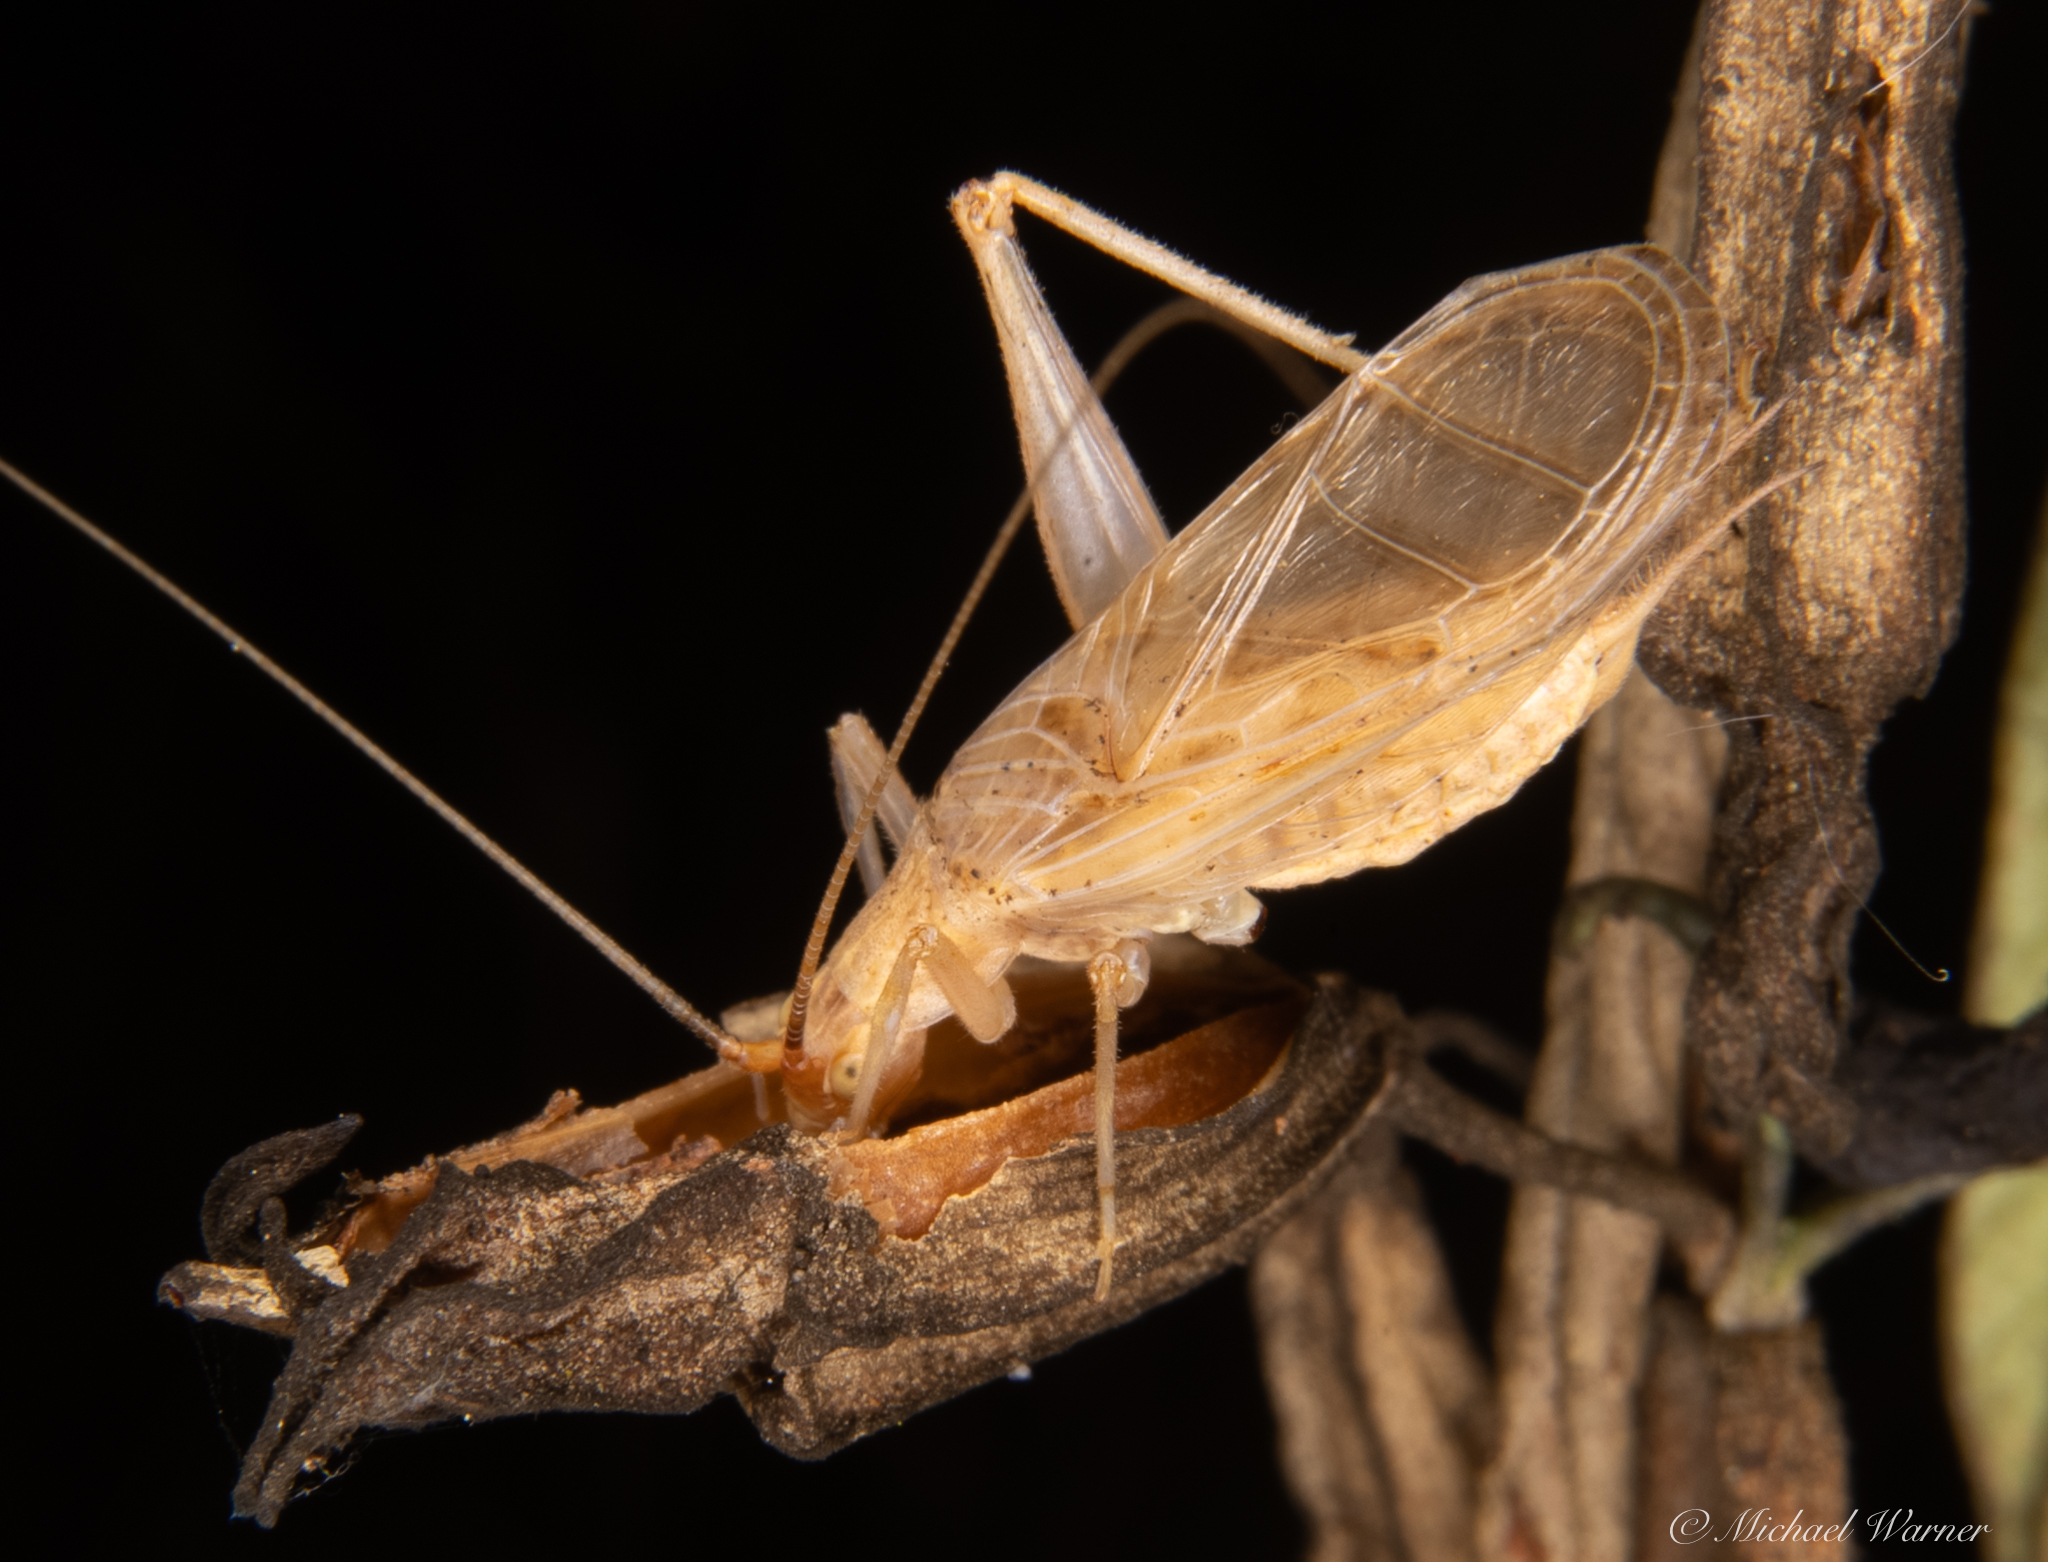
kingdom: Animalia
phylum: Arthropoda
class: Insecta
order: Orthoptera
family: Gryllidae
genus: Oecanthus
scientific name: Oecanthus californicus
